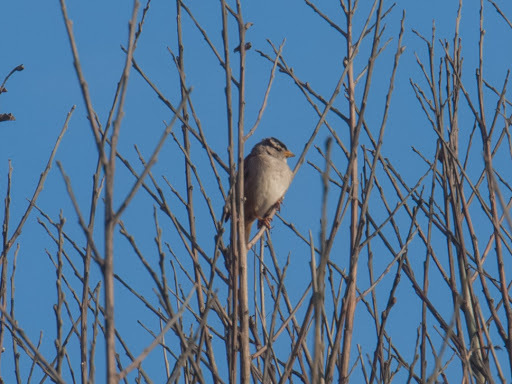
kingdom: Animalia
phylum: Chordata
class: Aves
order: Passeriformes
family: Passerellidae
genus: Zonotrichia
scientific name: Zonotrichia leucophrys
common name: White-crowned sparrow
